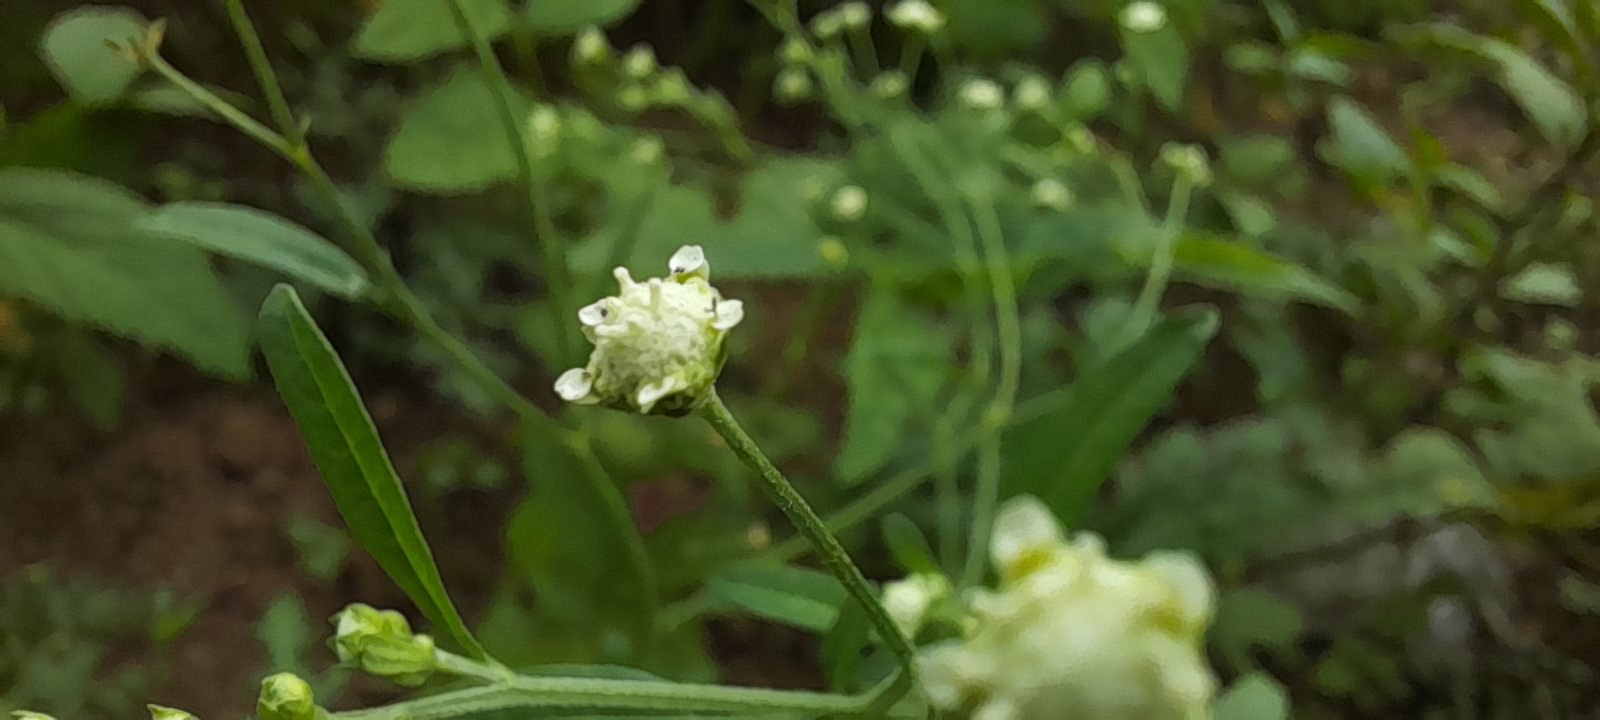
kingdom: Plantae
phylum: Tracheophyta
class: Magnoliopsida
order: Asterales
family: Asteraceae
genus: Parthenium
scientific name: Parthenium hysterophorus
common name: Santa maria feverfew
